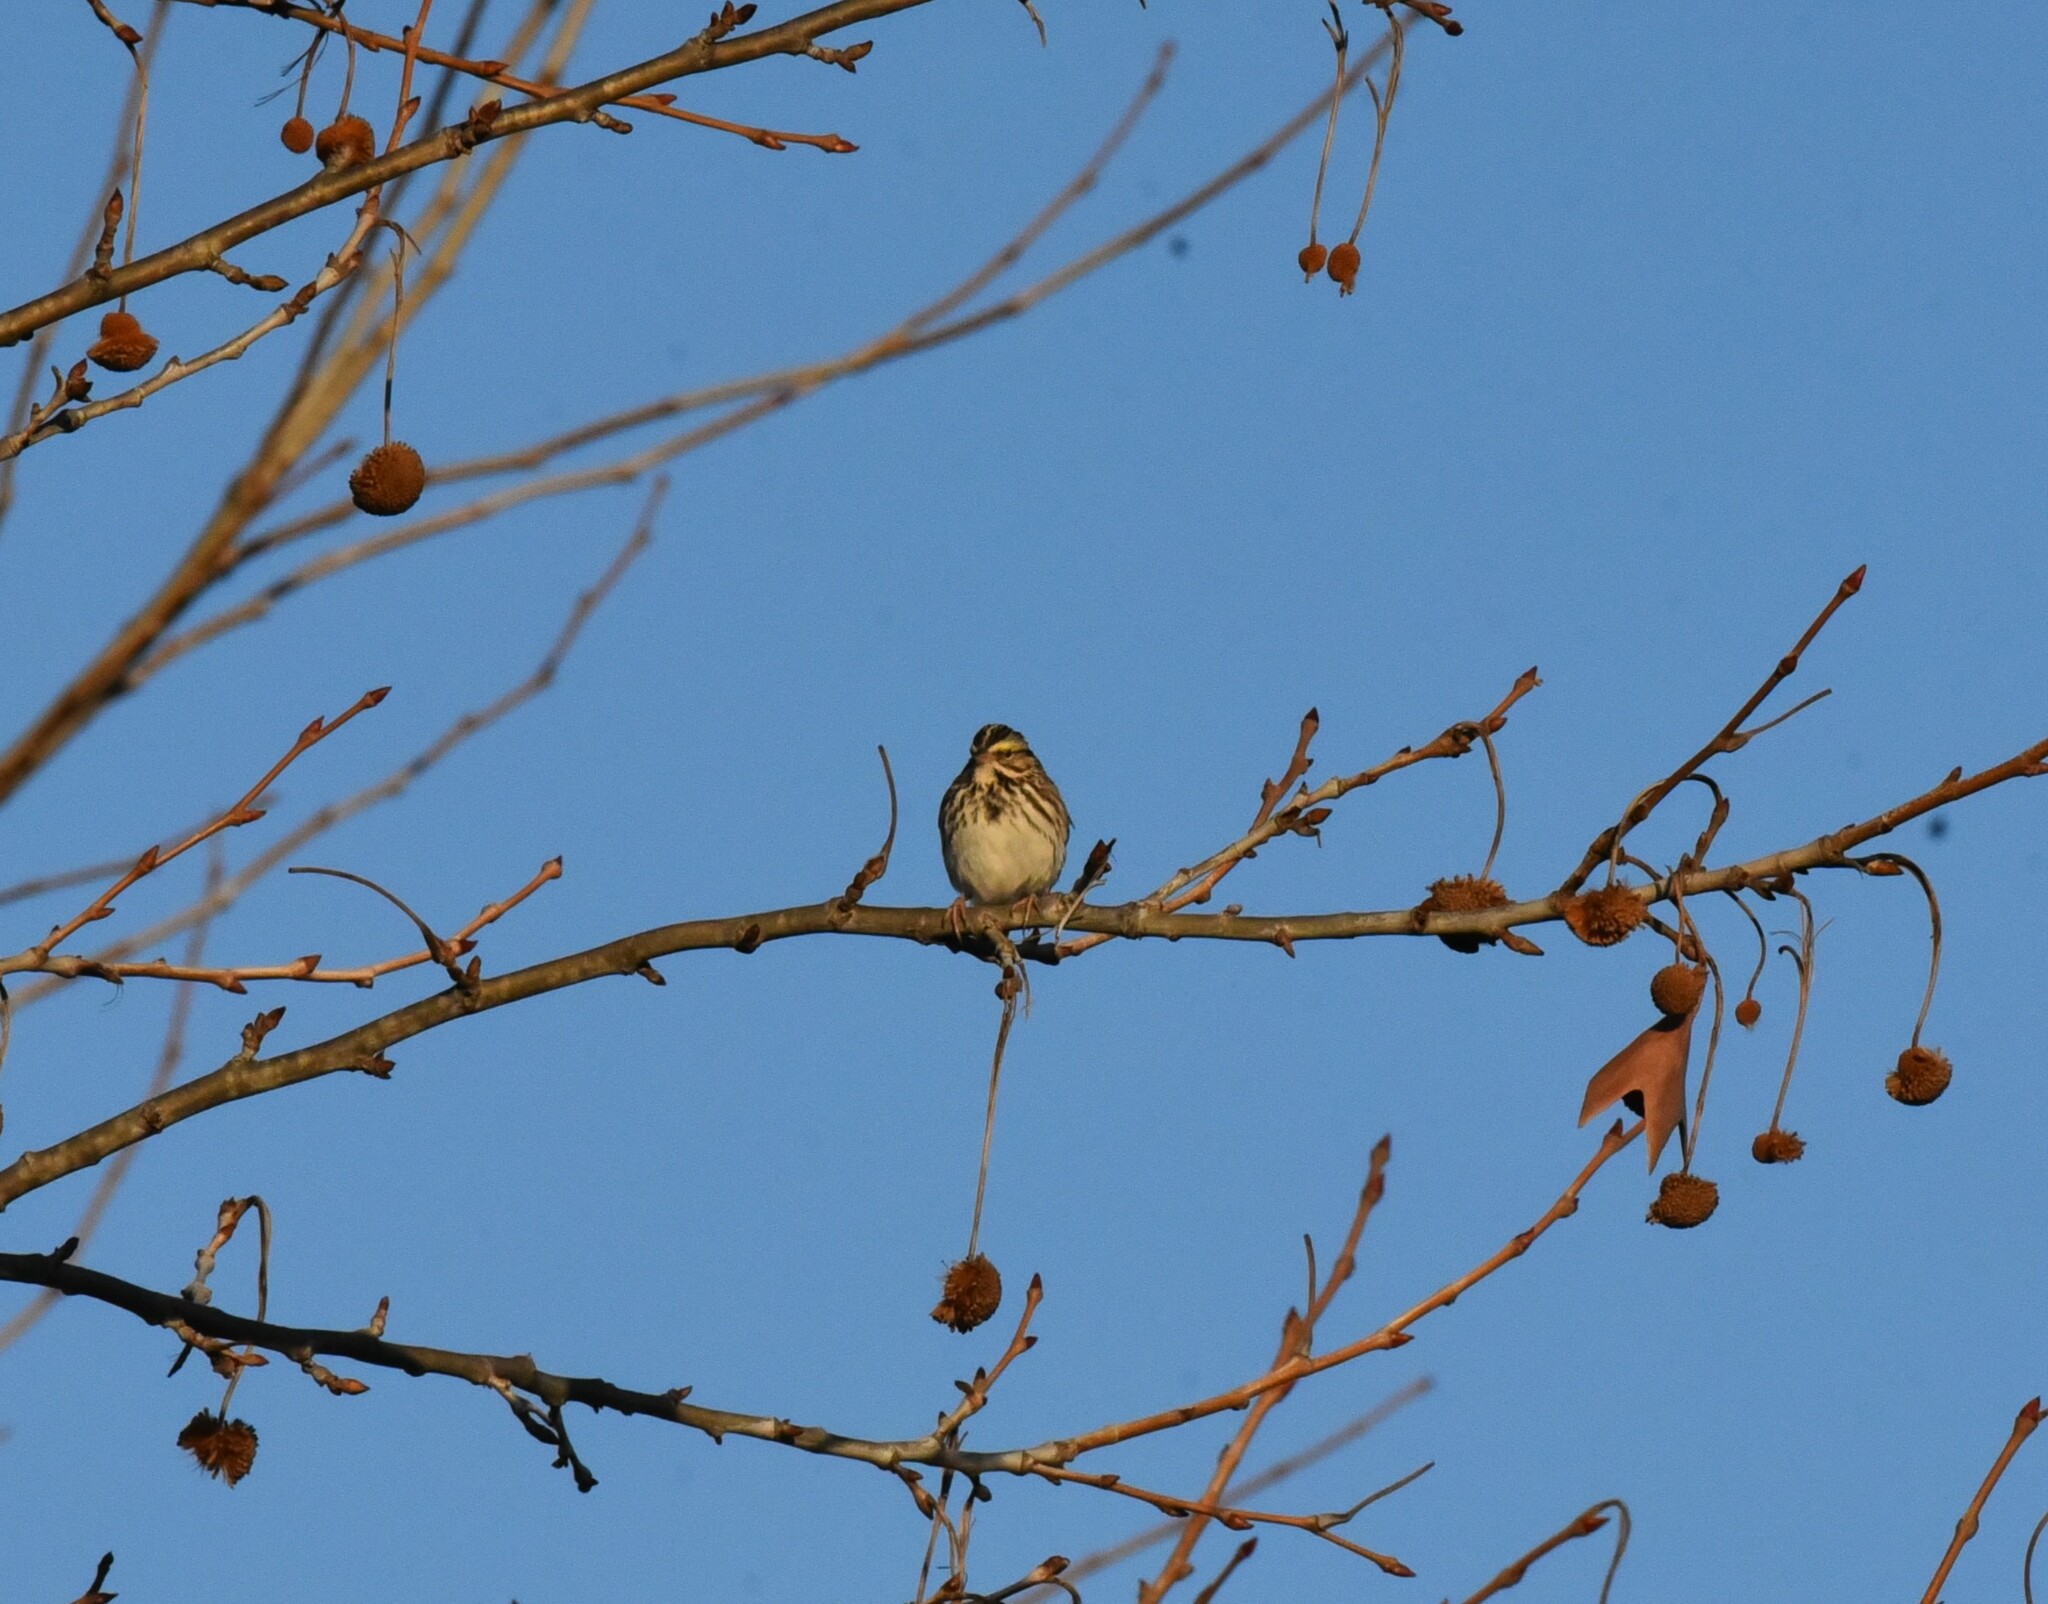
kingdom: Animalia
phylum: Chordata
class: Aves
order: Passeriformes
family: Passerellidae
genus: Passerculus
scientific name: Passerculus sandwichensis
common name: Savannah sparrow
